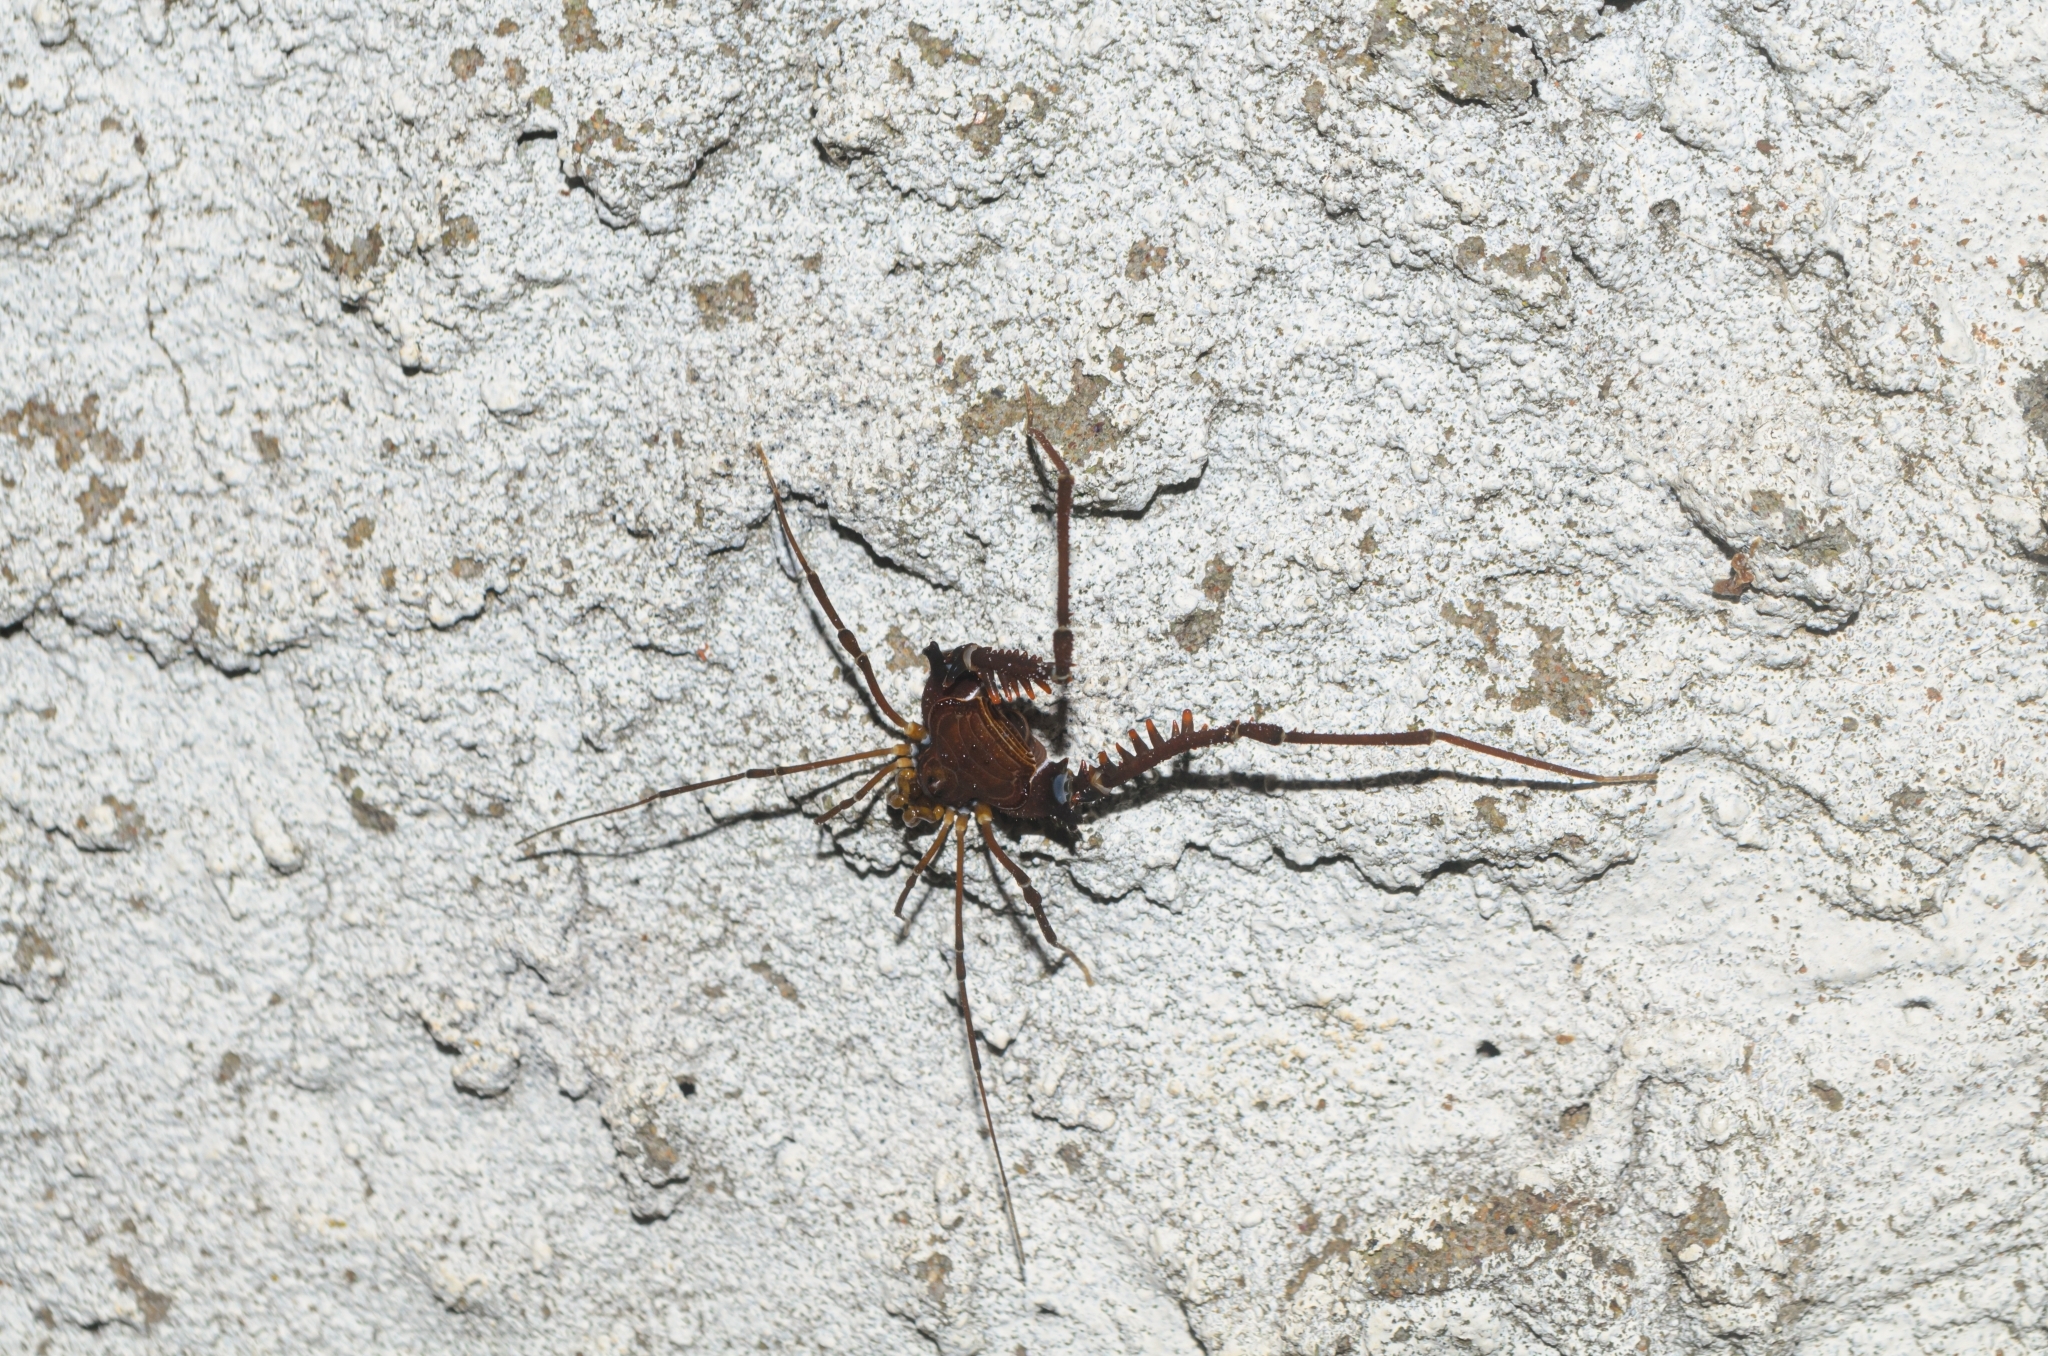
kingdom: Animalia
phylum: Arthropoda
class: Arachnida
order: Opiliones
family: Gonyleptidae
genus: Bunopachylus
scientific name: Bunopachylus orientalis
